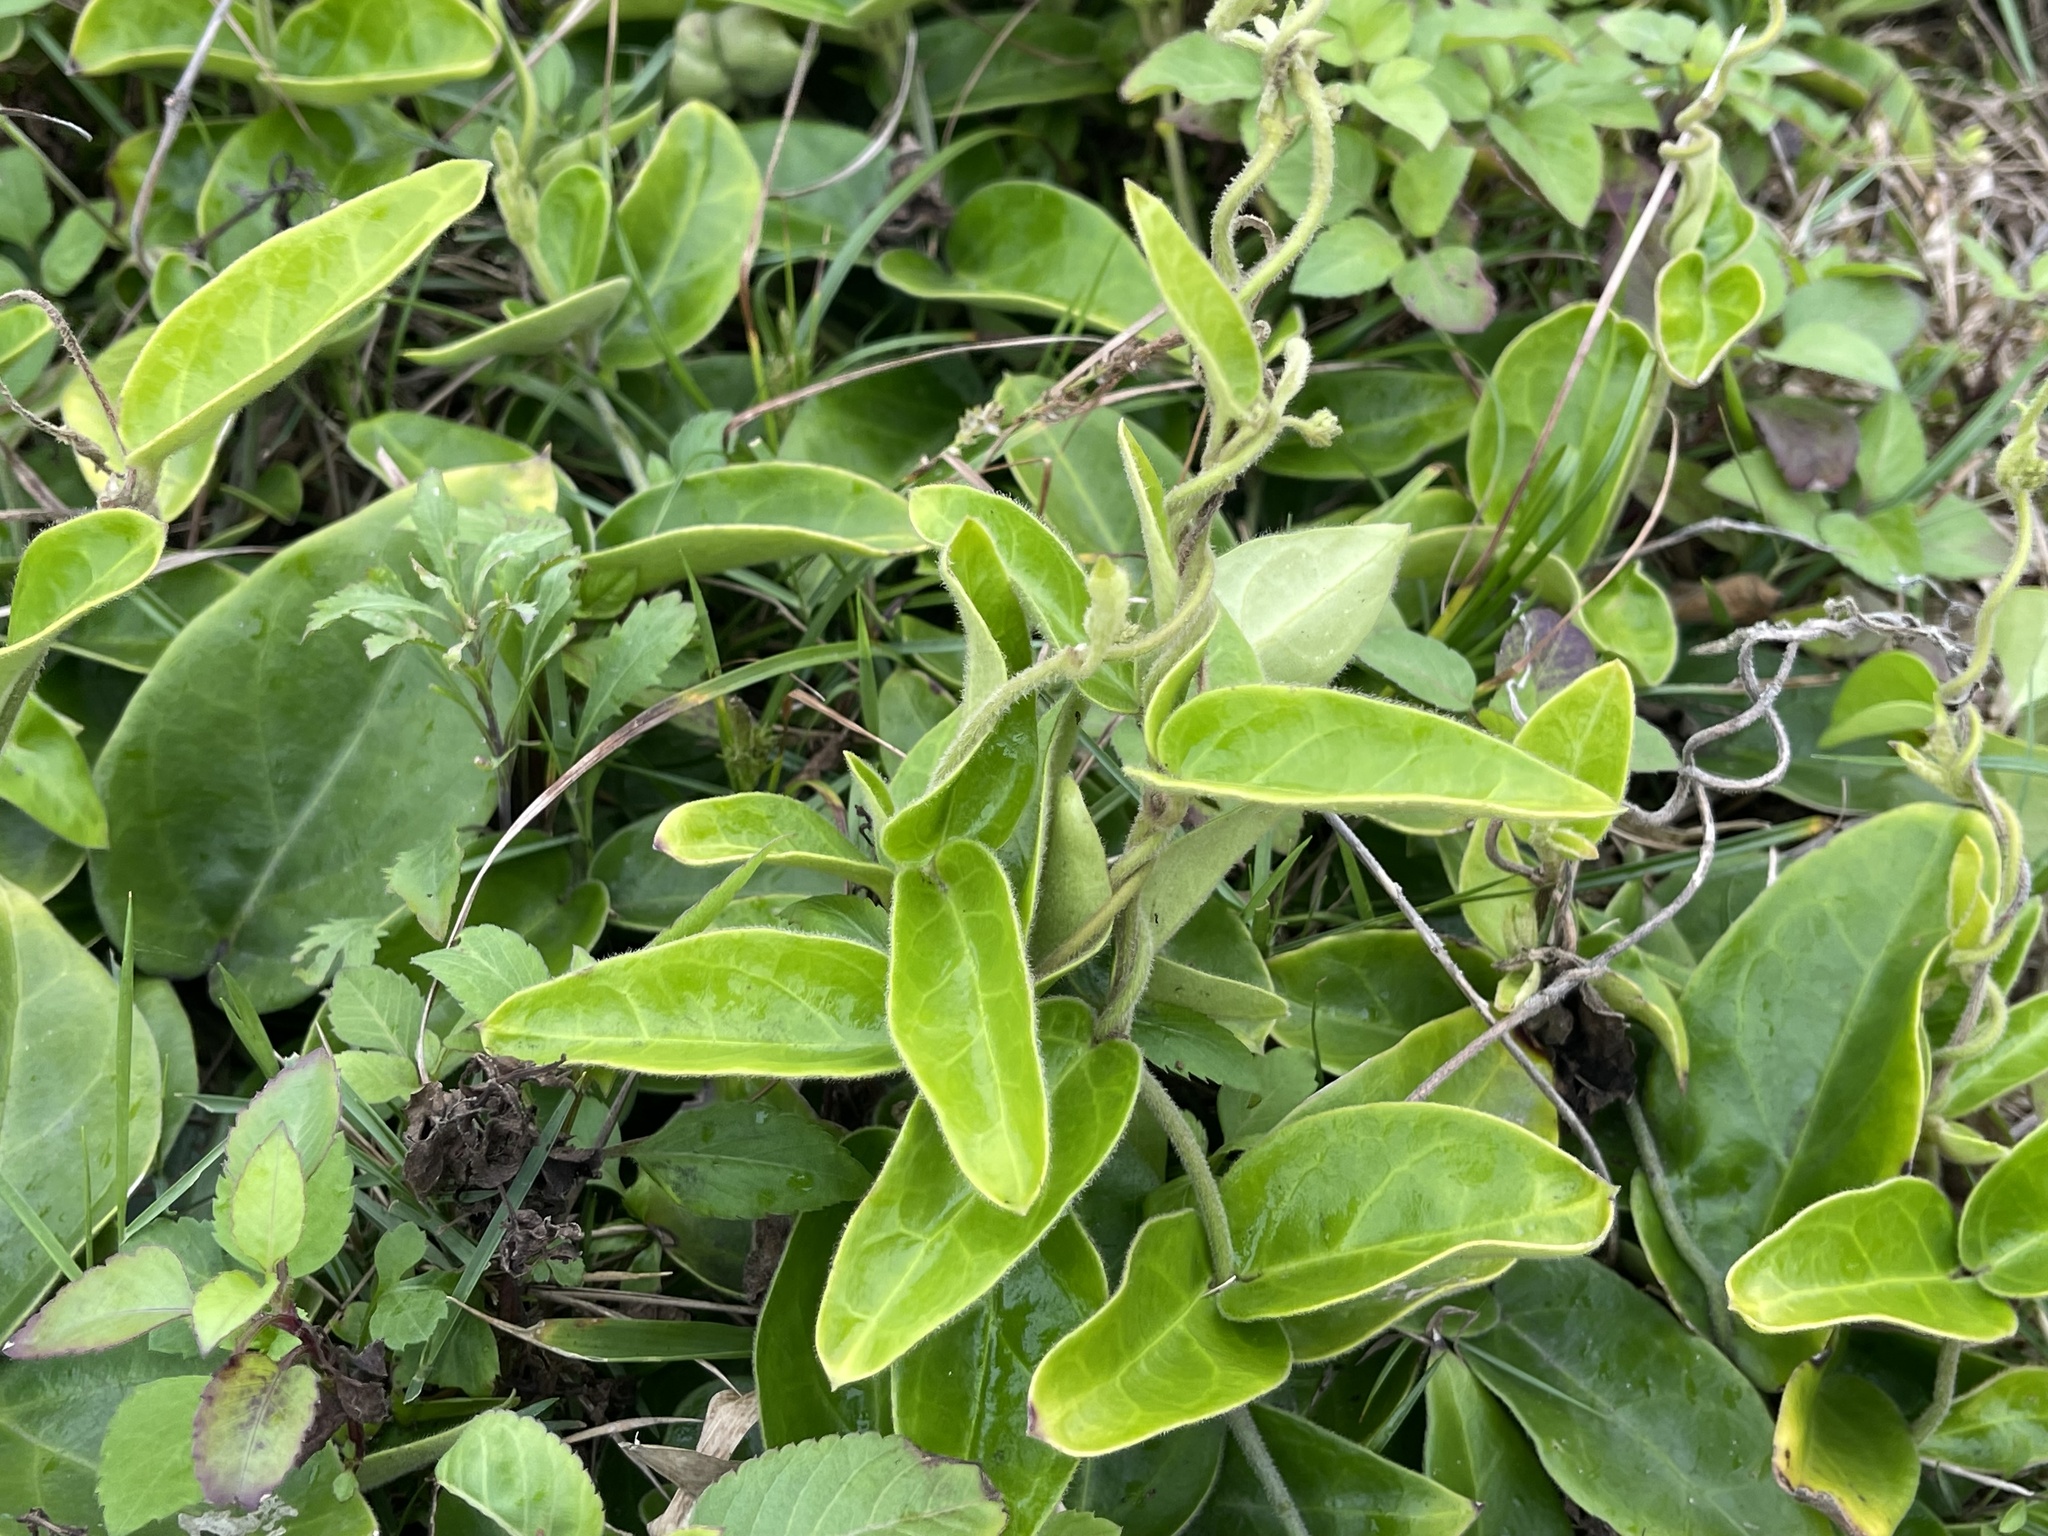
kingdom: Plantae
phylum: Tracheophyta
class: Magnoliopsida
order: Gentianales
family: Apocynaceae
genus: Vincetoxicum
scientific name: Vincetoxicum hirsutum
